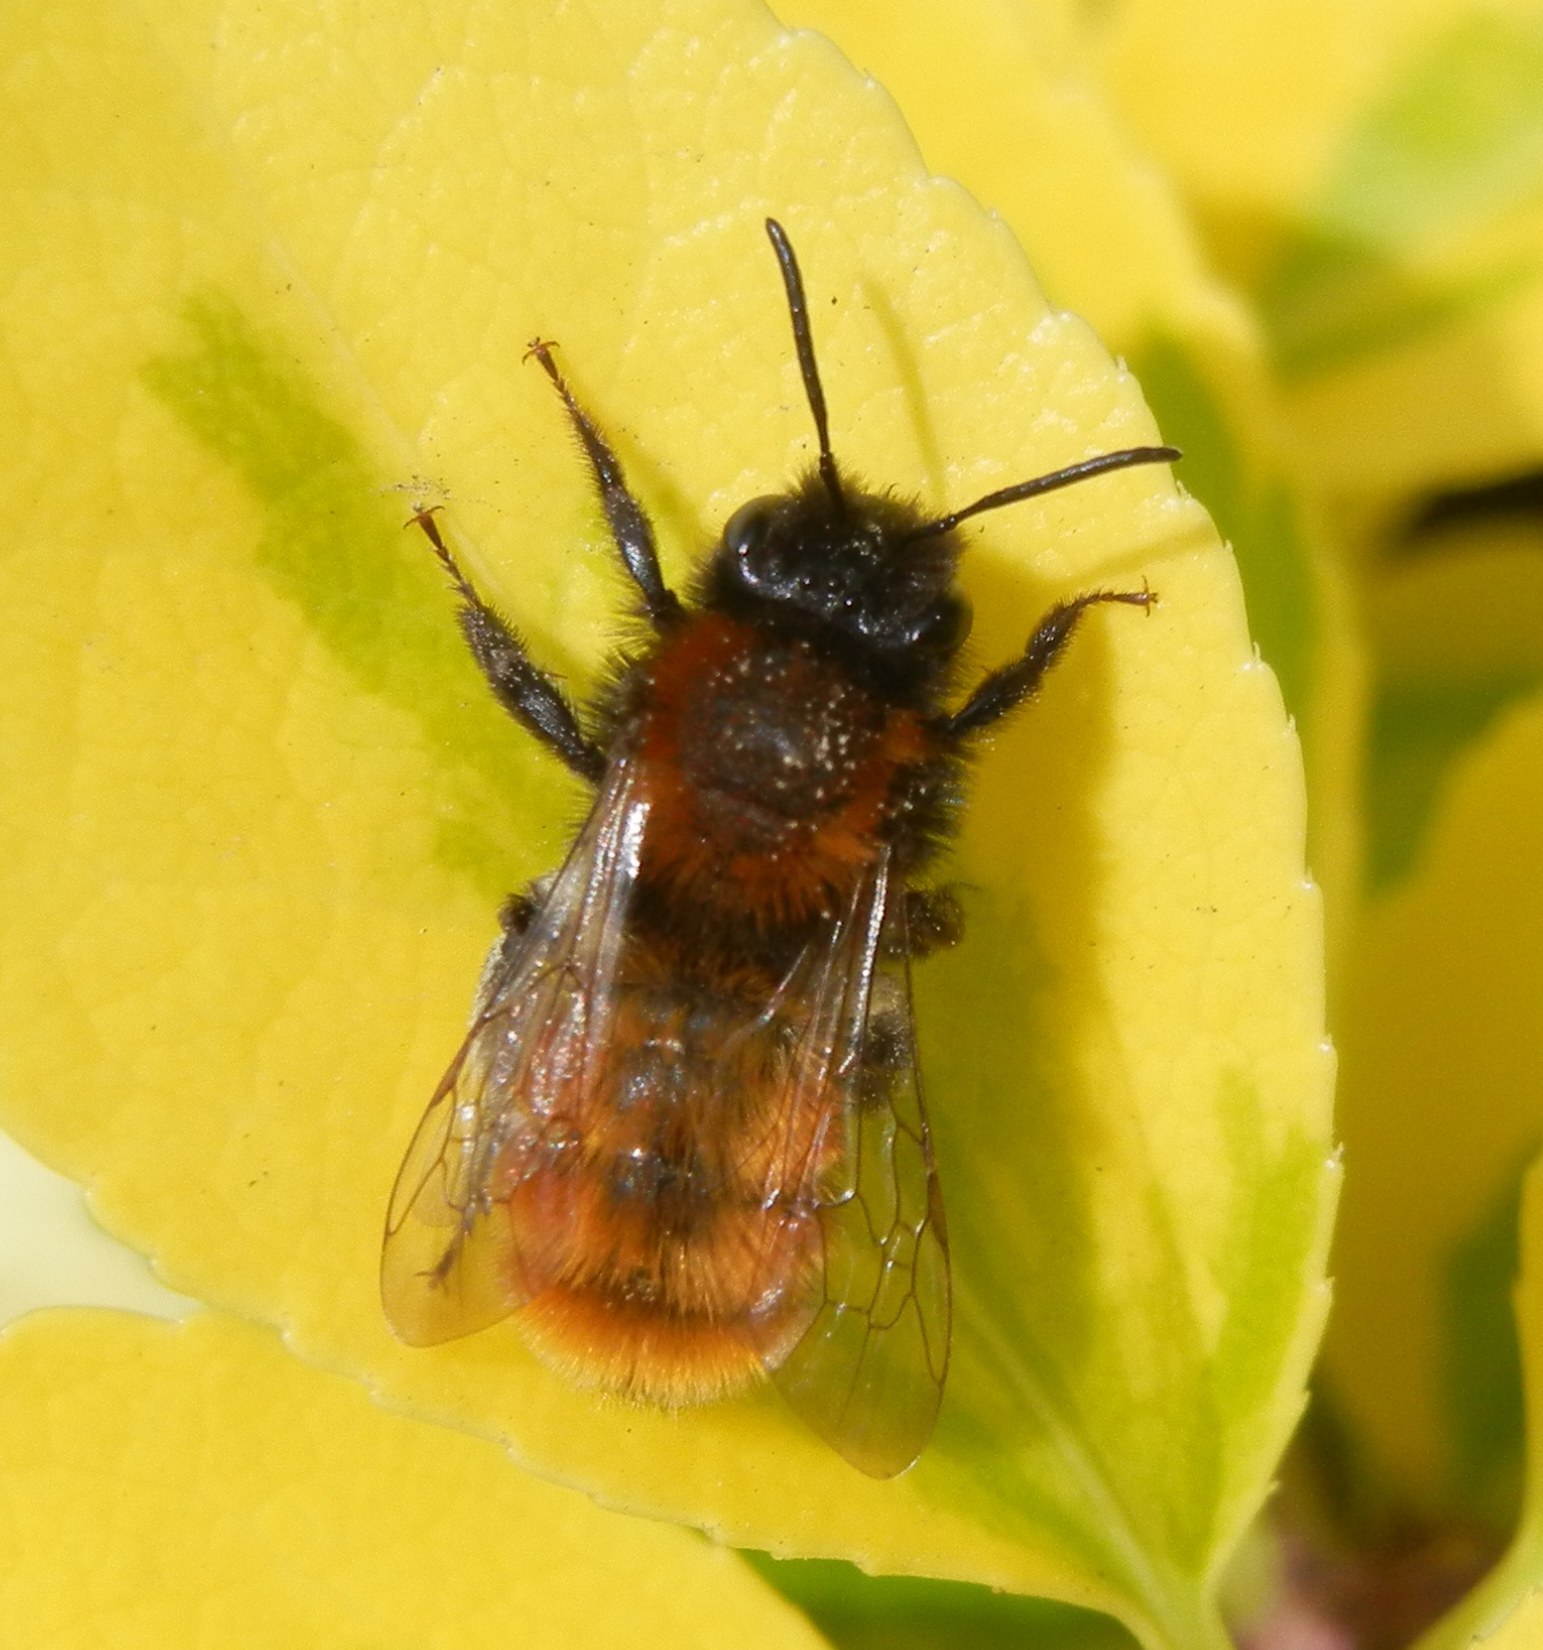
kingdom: Animalia
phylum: Arthropoda
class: Insecta
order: Hymenoptera
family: Andrenidae
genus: Andrena
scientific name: Andrena fulva
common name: Tawny mining bee
